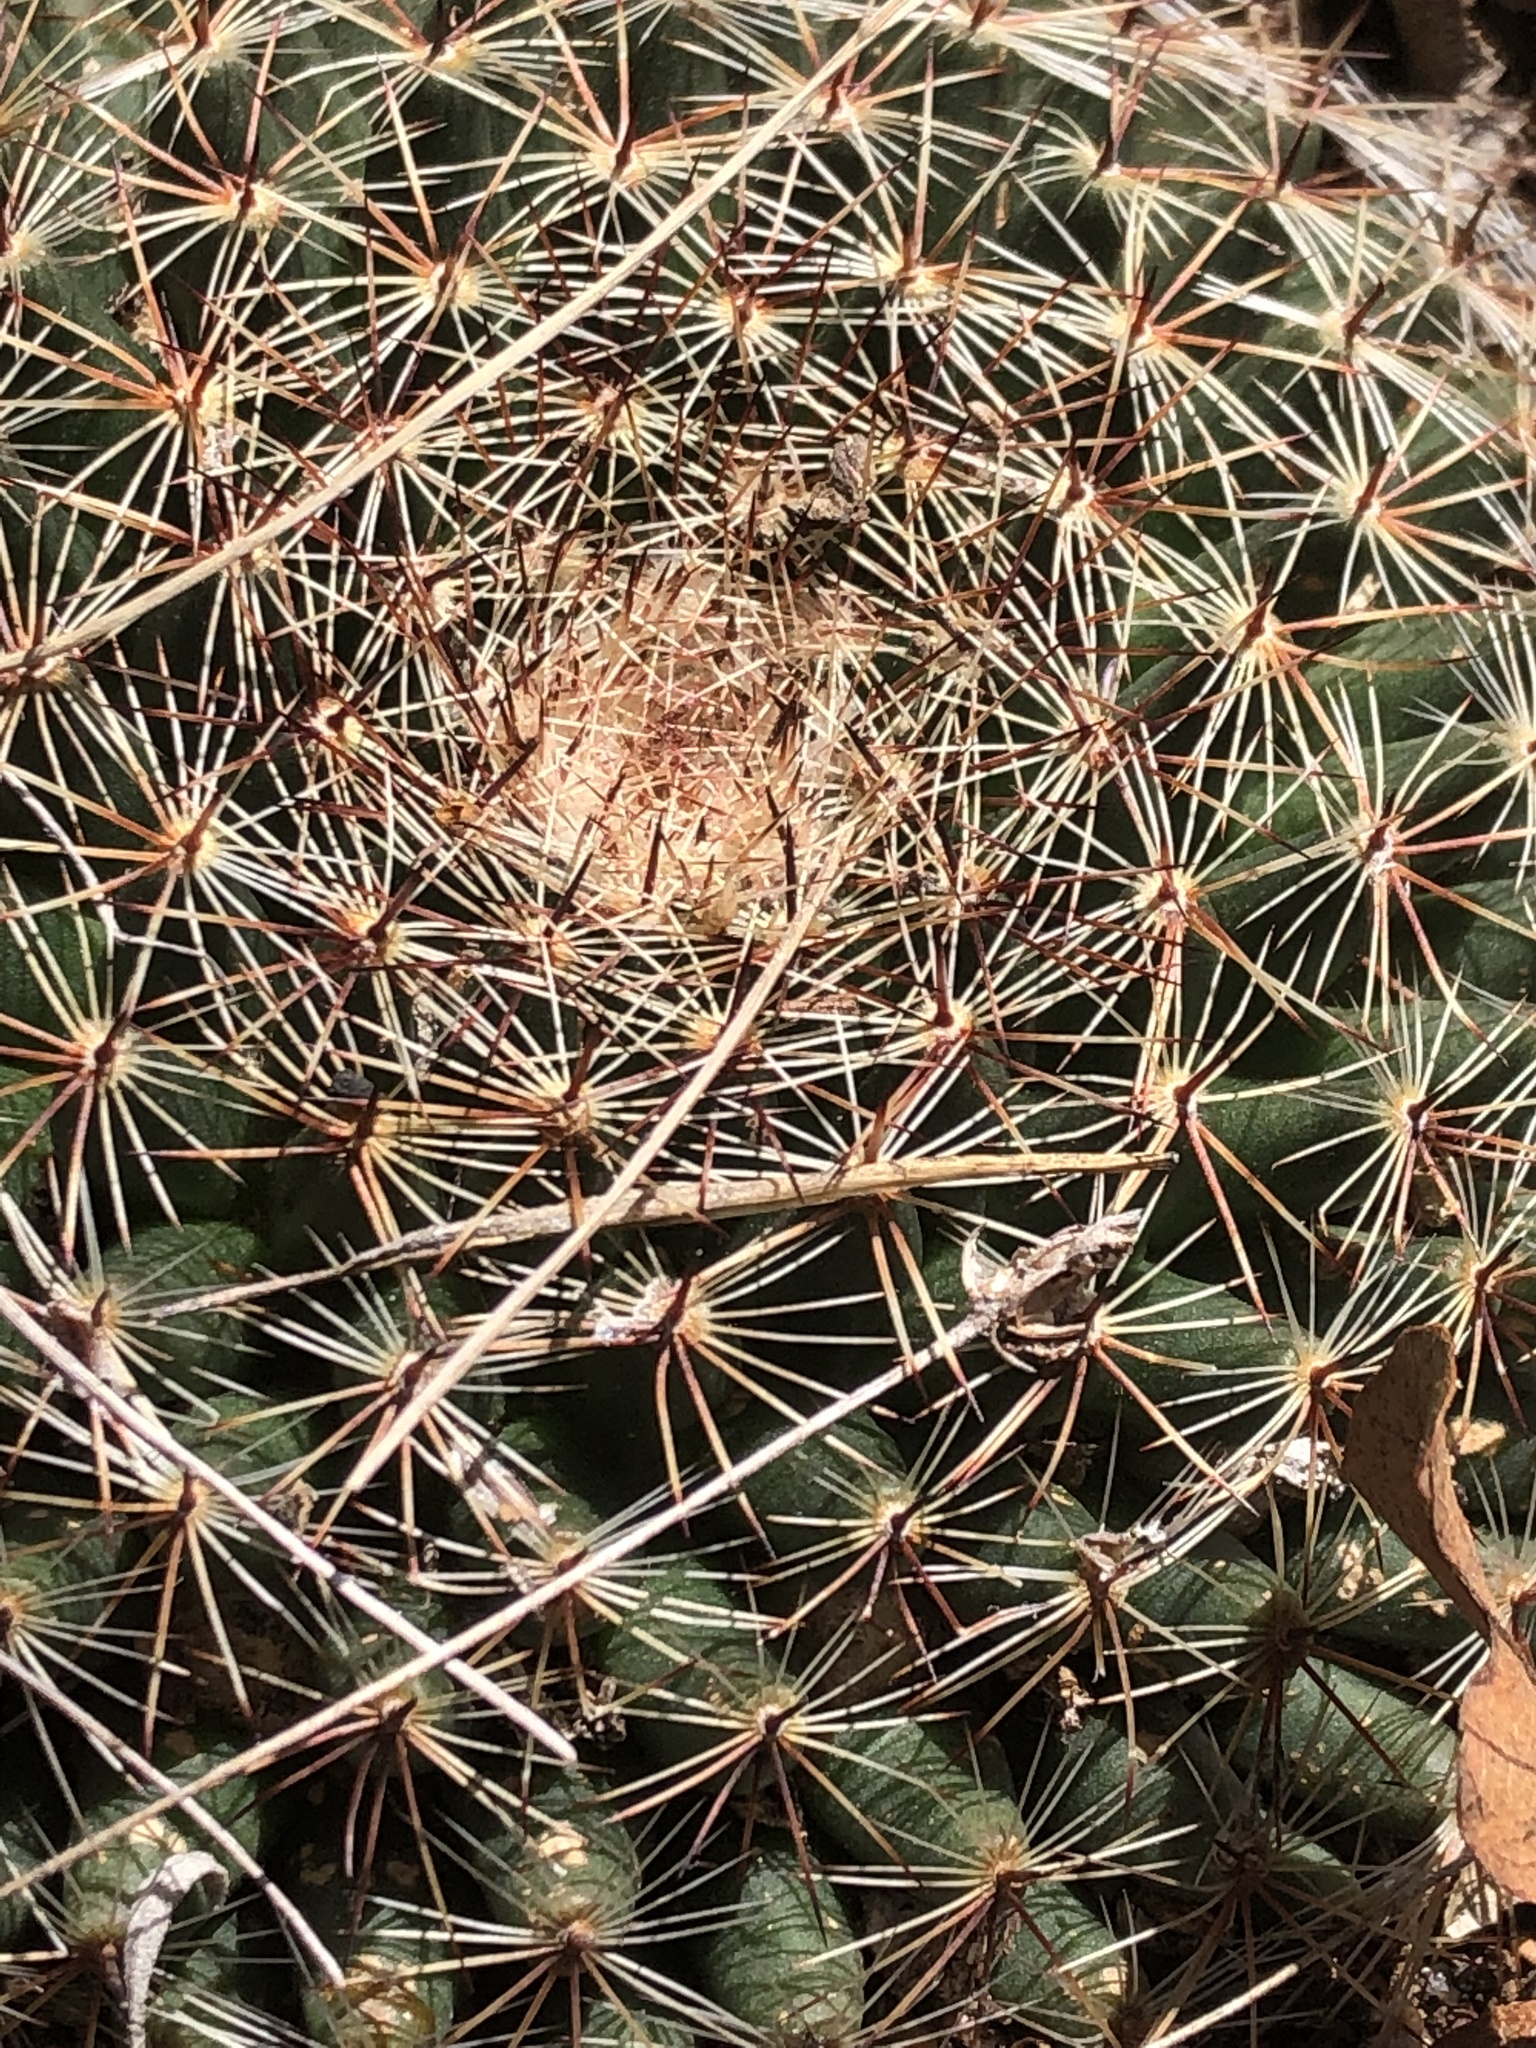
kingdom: Plantae
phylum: Tracheophyta
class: Magnoliopsida
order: Caryophyllales
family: Cactaceae
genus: Mammillaria
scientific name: Mammillaria heyderi
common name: Little nipple cactus
